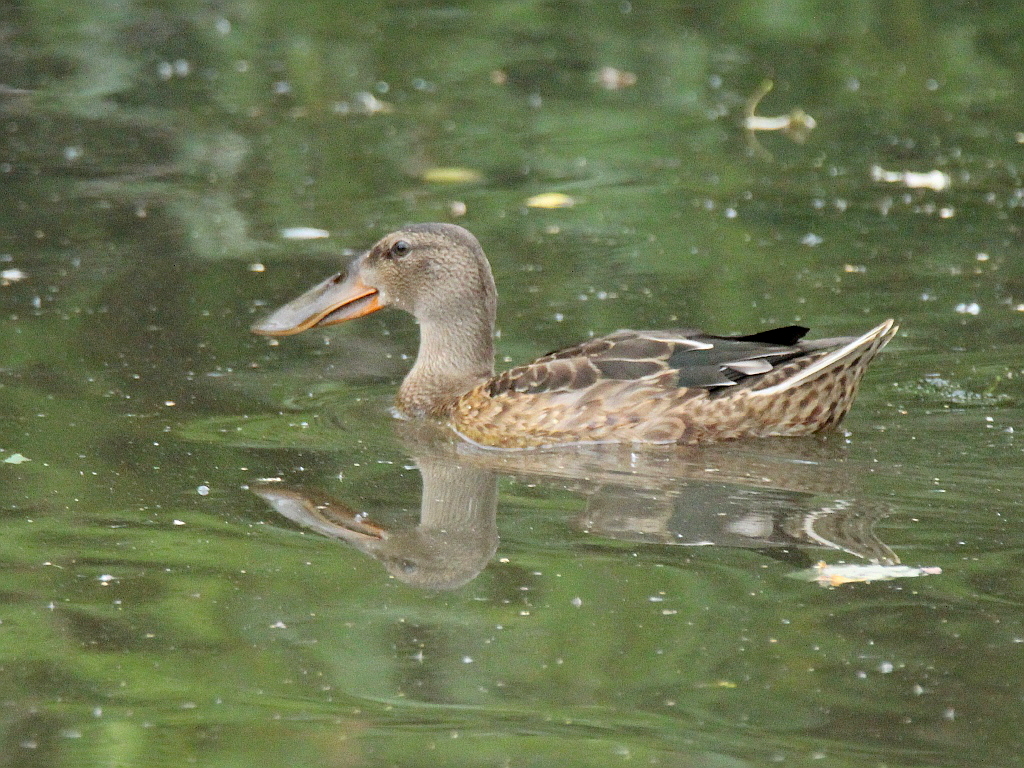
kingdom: Animalia
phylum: Chordata
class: Aves
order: Anseriformes
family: Anatidae
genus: Spatula
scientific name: Spatula clypeata
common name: Northern shoveler
